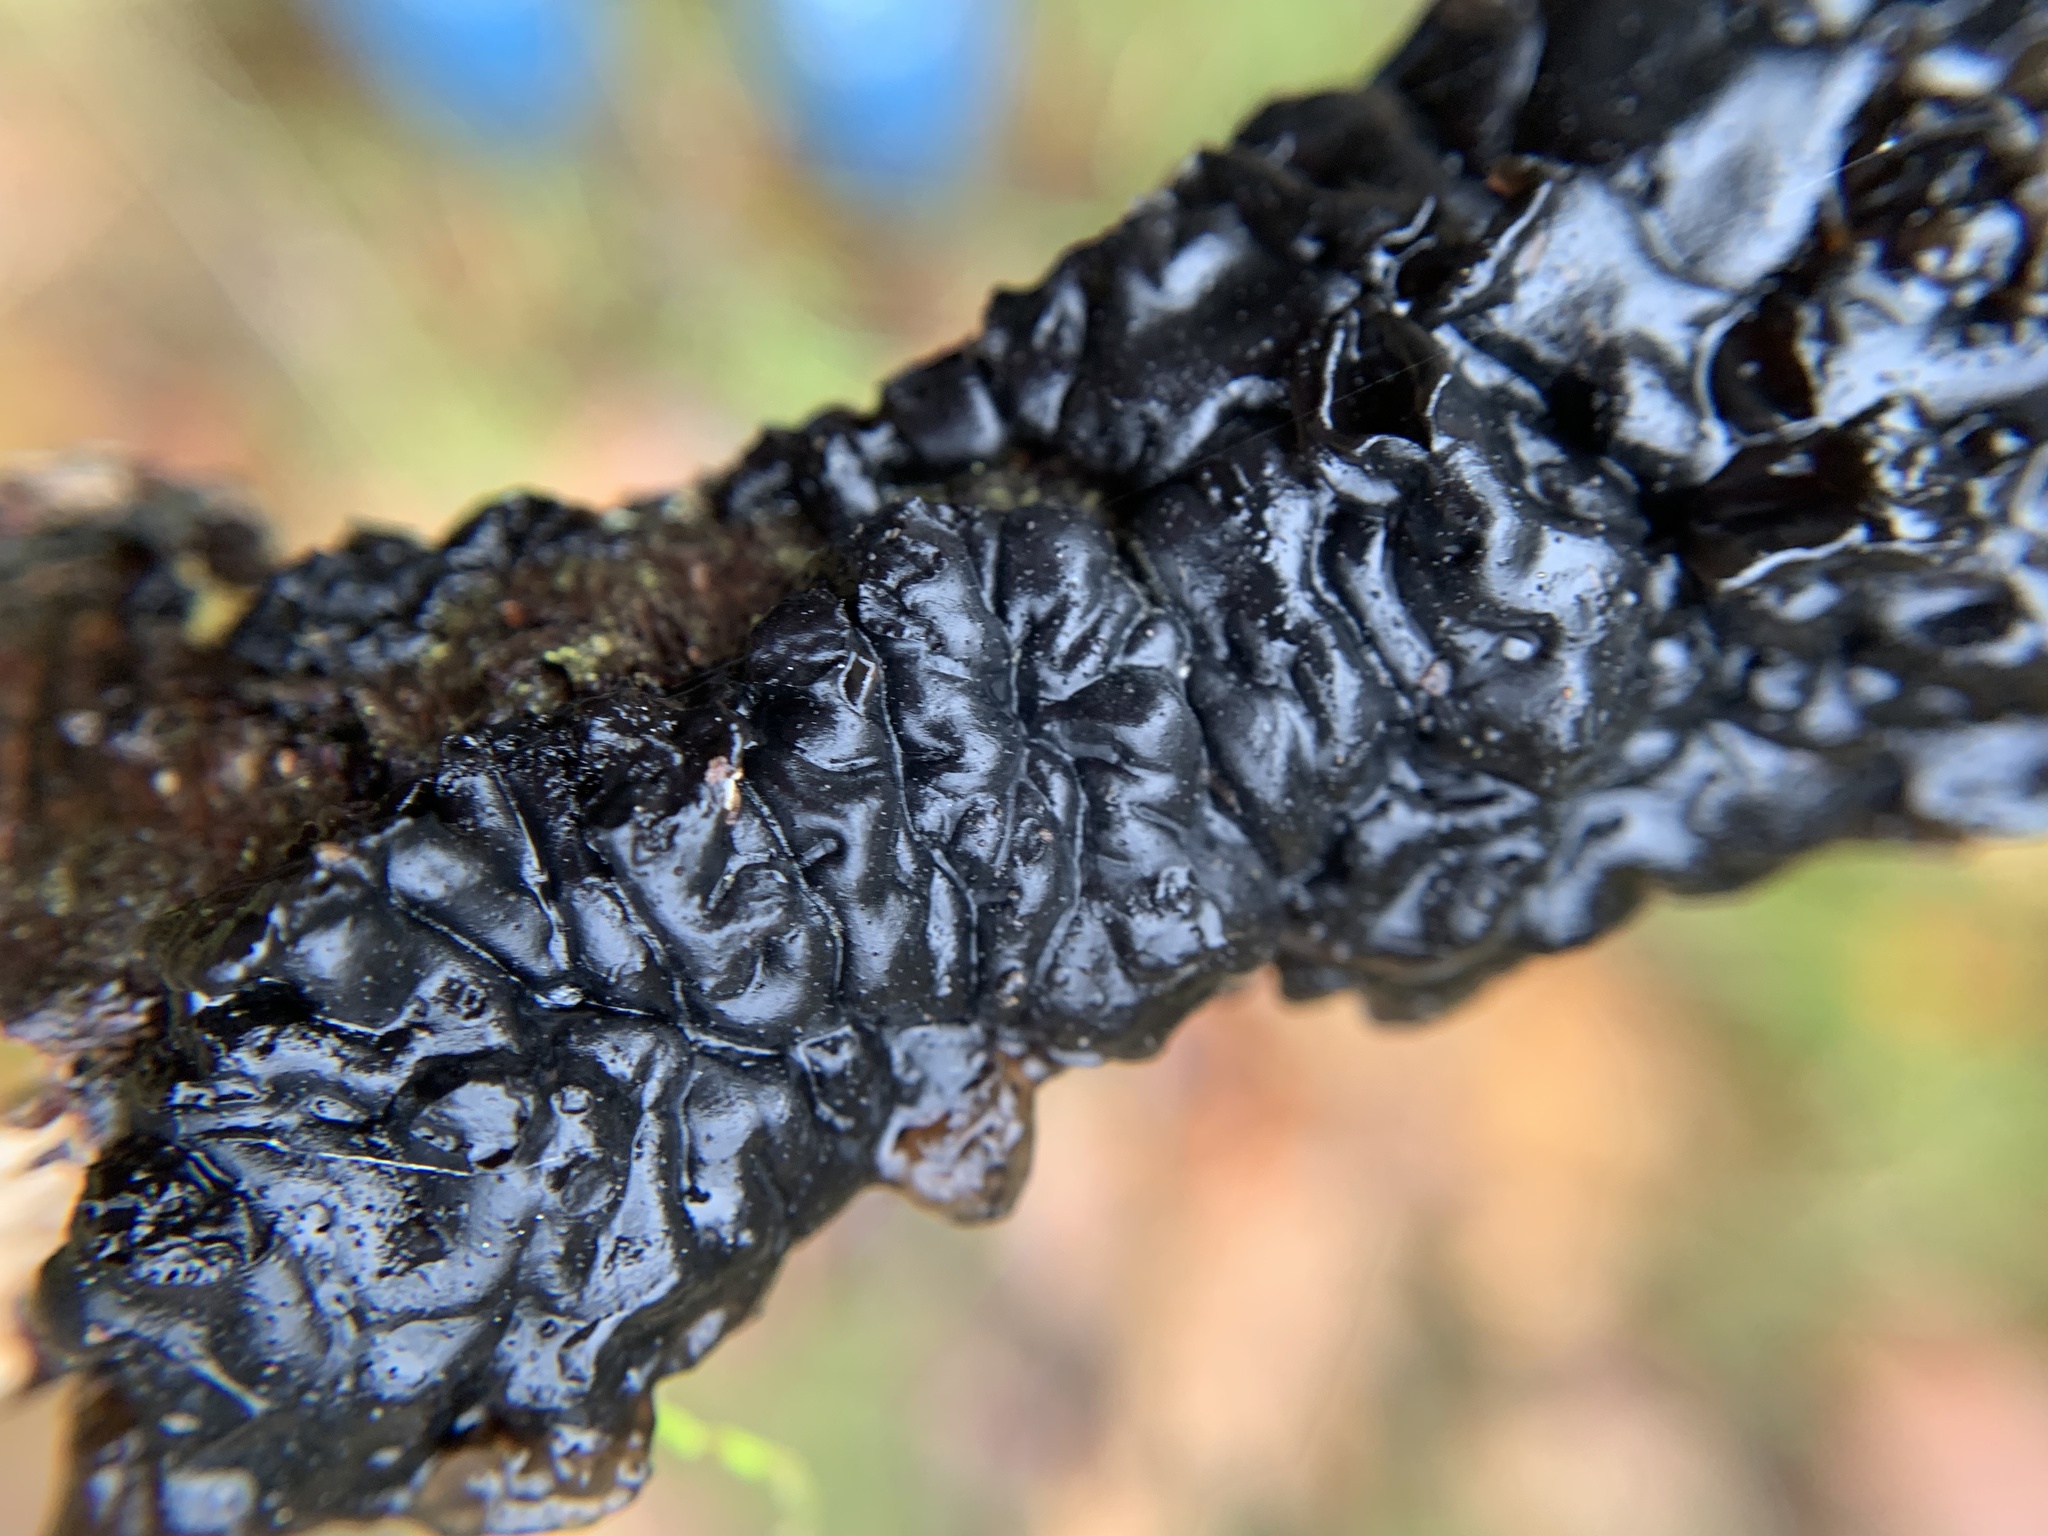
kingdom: Fungi
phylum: Basidiomycota
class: Agaricomycetes
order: Auriculariales
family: Auriculariaceae
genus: Exidia
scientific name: Exidia glandulosa
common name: Witches' butter
